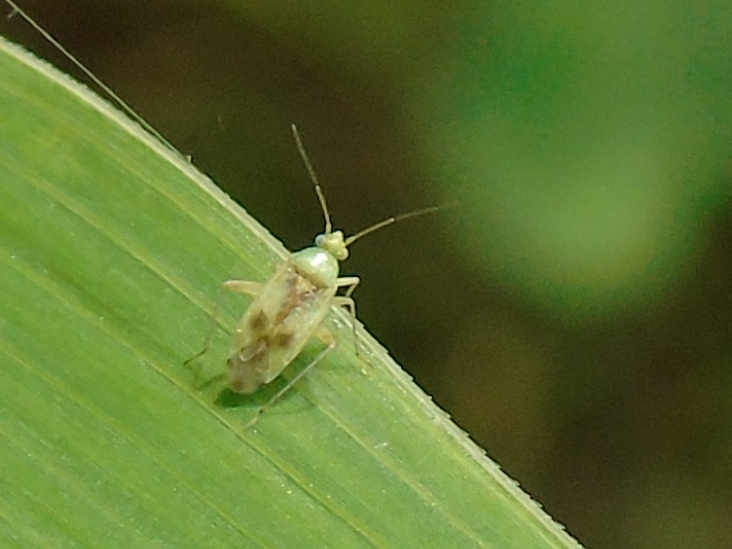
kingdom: Animalia
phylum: Arthropoda
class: Insecta
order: Hemiptera
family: Miridae
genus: Reuteroscopus
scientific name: Reuteroscopus
